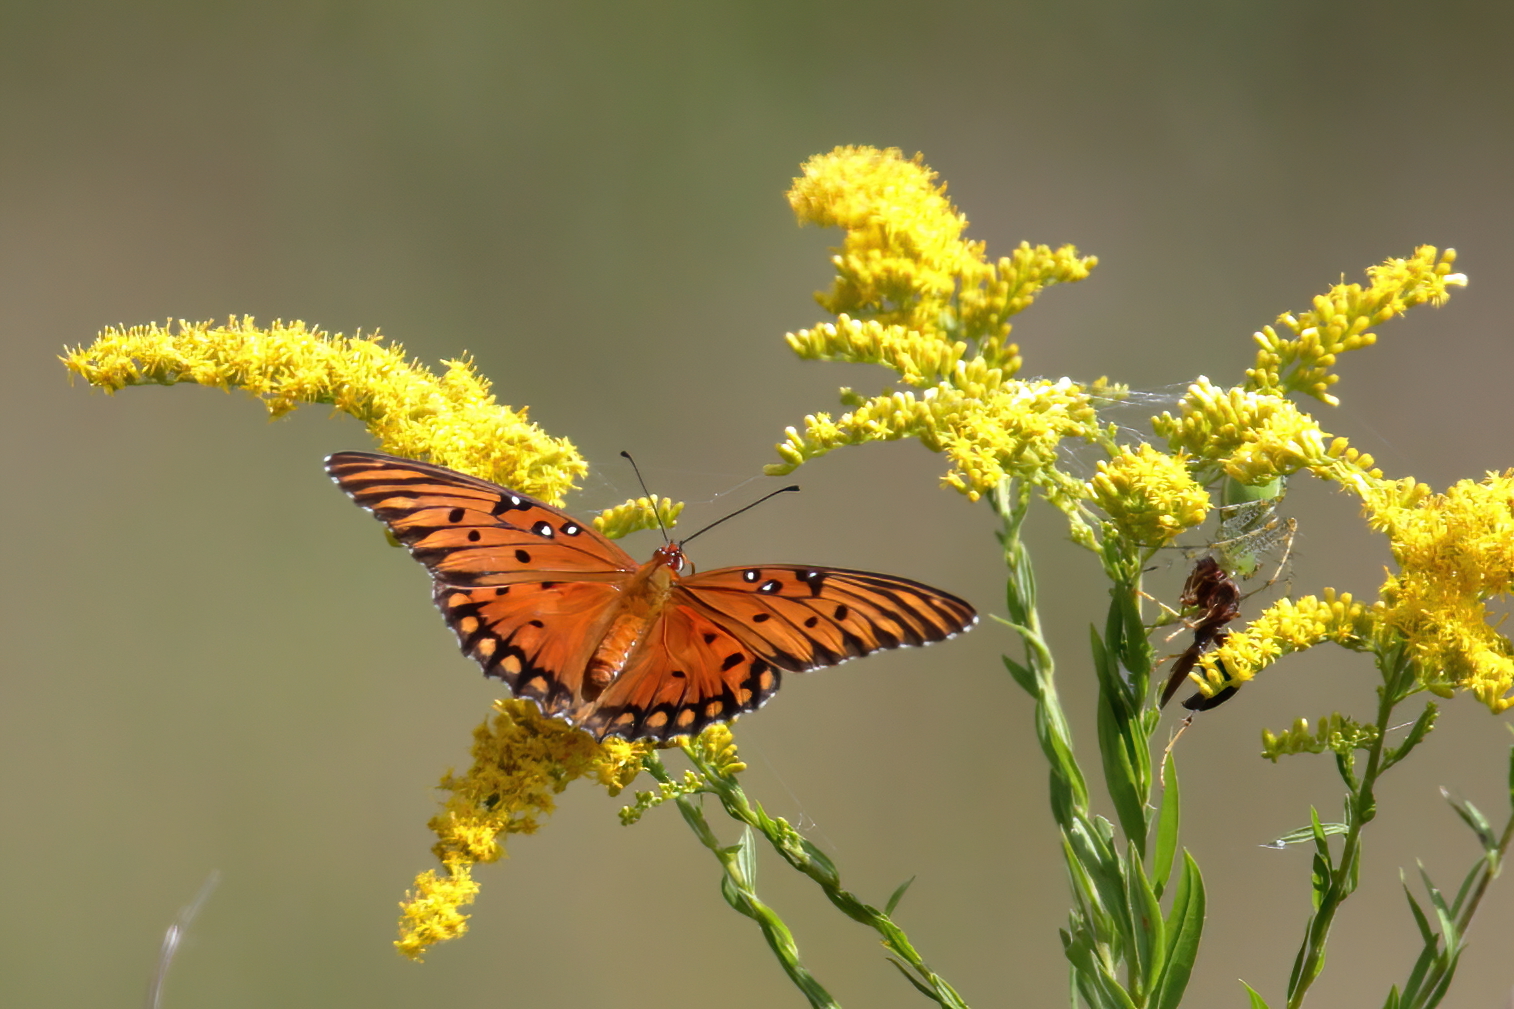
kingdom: Animalia
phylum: Arthropoda
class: Insecta
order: Lepidoptera
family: Nymphalidae
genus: Dione
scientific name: Dione vanillae
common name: Gulf fritillary
